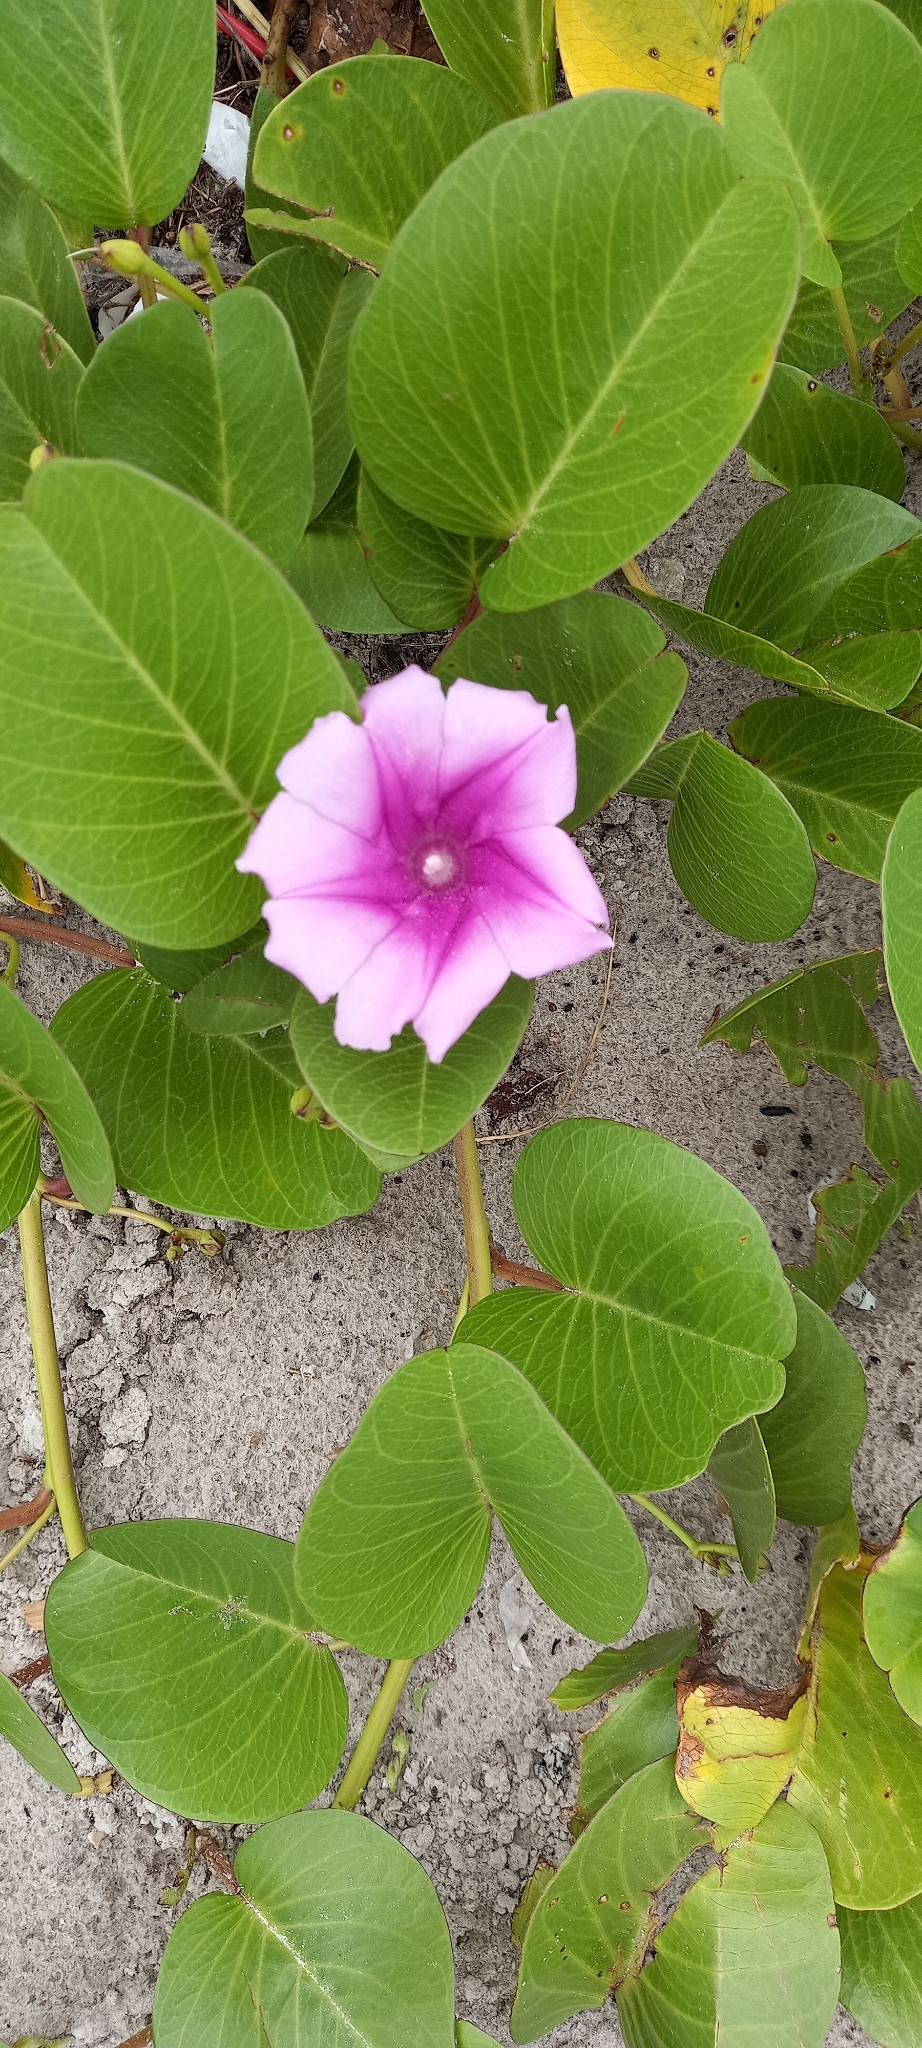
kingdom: Plantae
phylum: Tracheophyta
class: Magnoliopsida
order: Solanales
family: Convolvulaceae
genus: Ipomoea
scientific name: Ipomoea pes-caprae
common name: Beach morning glory
